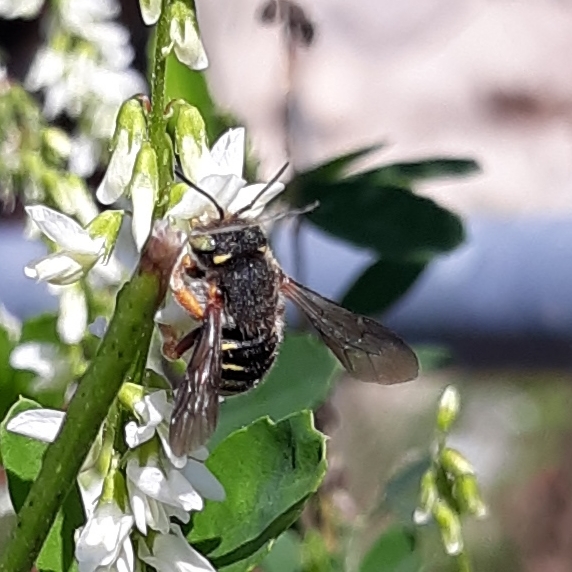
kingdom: Animalia
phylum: Arthropoda
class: Insecta
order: Hymenoptera
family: Megachilidae
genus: Anthidium
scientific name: Anthidium oblongatum
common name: Oblong wool carder bee
